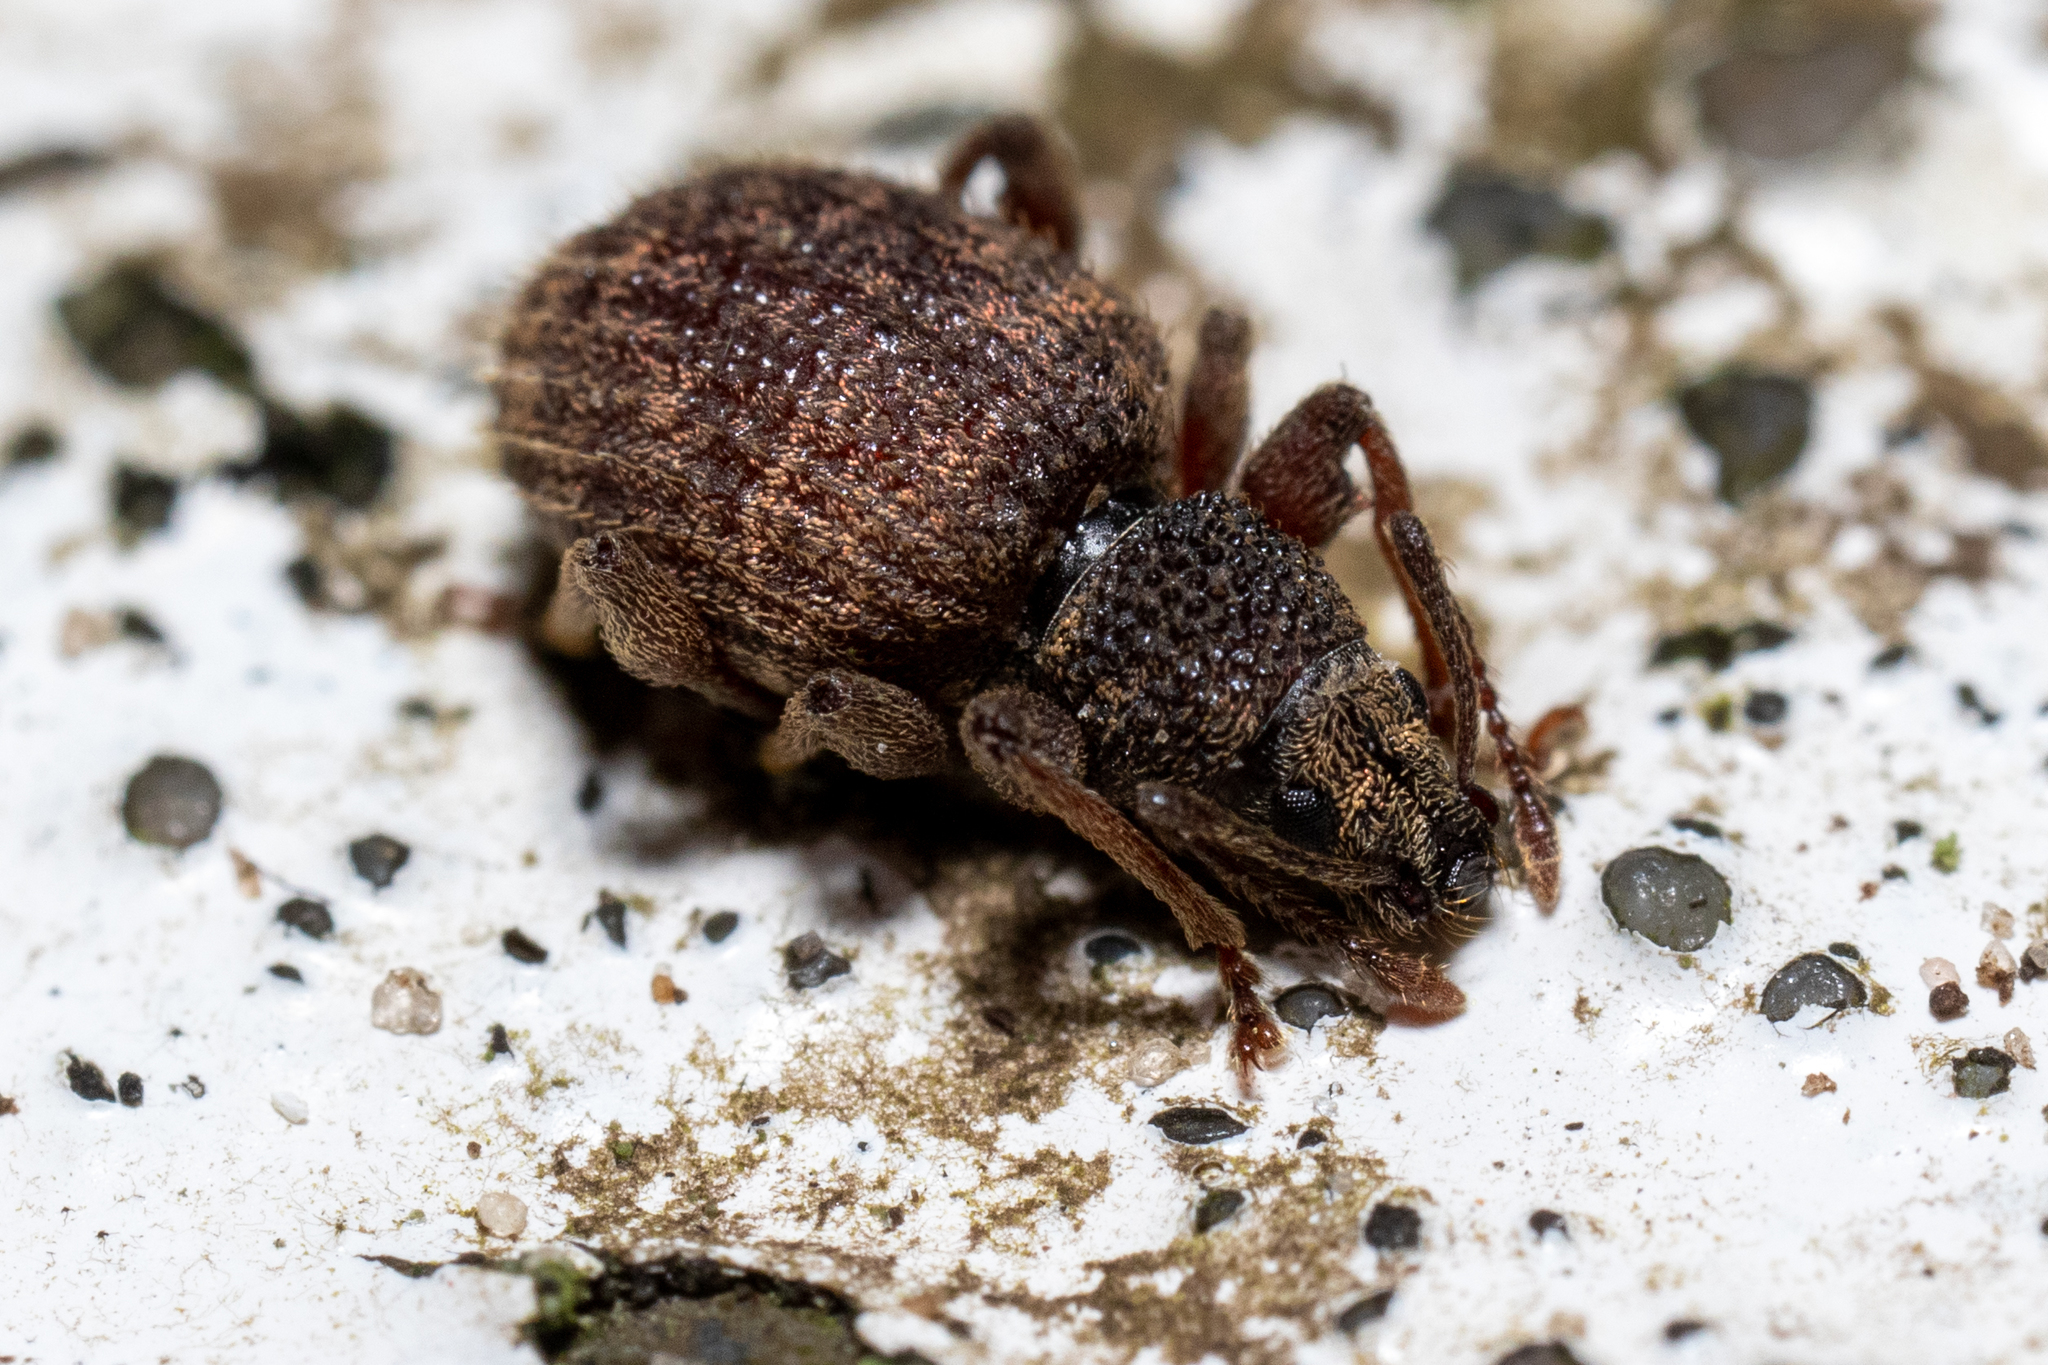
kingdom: Animalia
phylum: Arthropoda
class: Insecta
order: Coleoptera
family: Curculionidae
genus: Otiorhynchus
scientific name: Otiorhynchus crataegi
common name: Privet weevil
